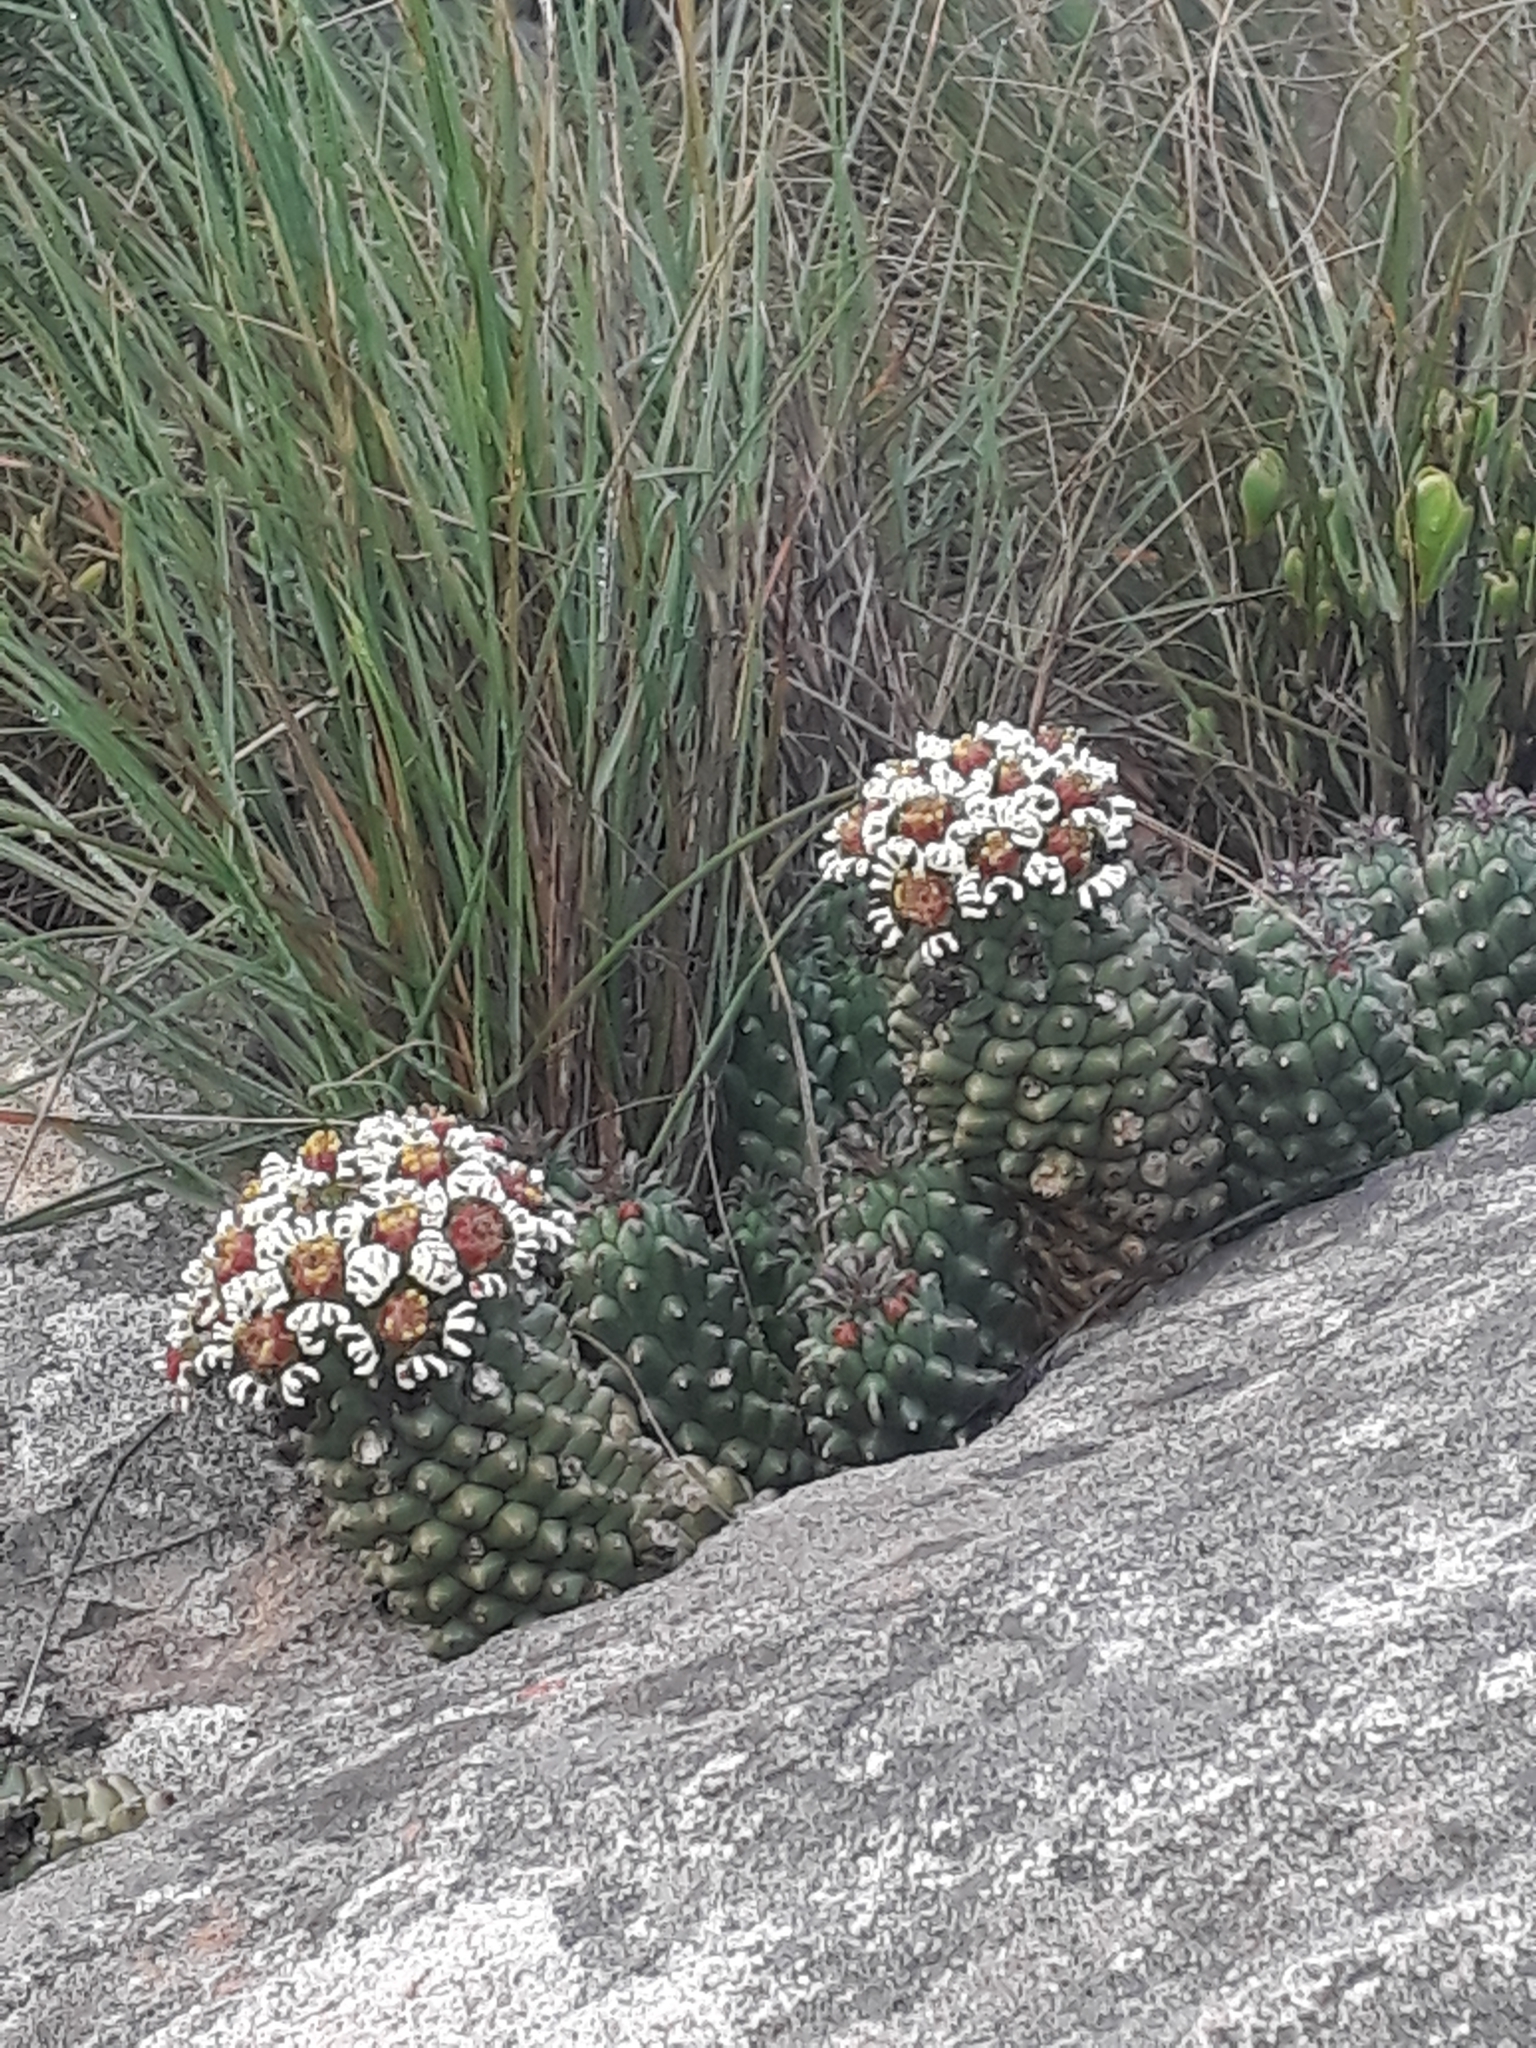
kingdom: Plantae
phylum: Tracheophyta
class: Magnoliopsida
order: Malpighiales
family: Euphorbiaceae
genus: Euphorbia
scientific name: Euphorbia caput-medusae
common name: Medusa's-head
